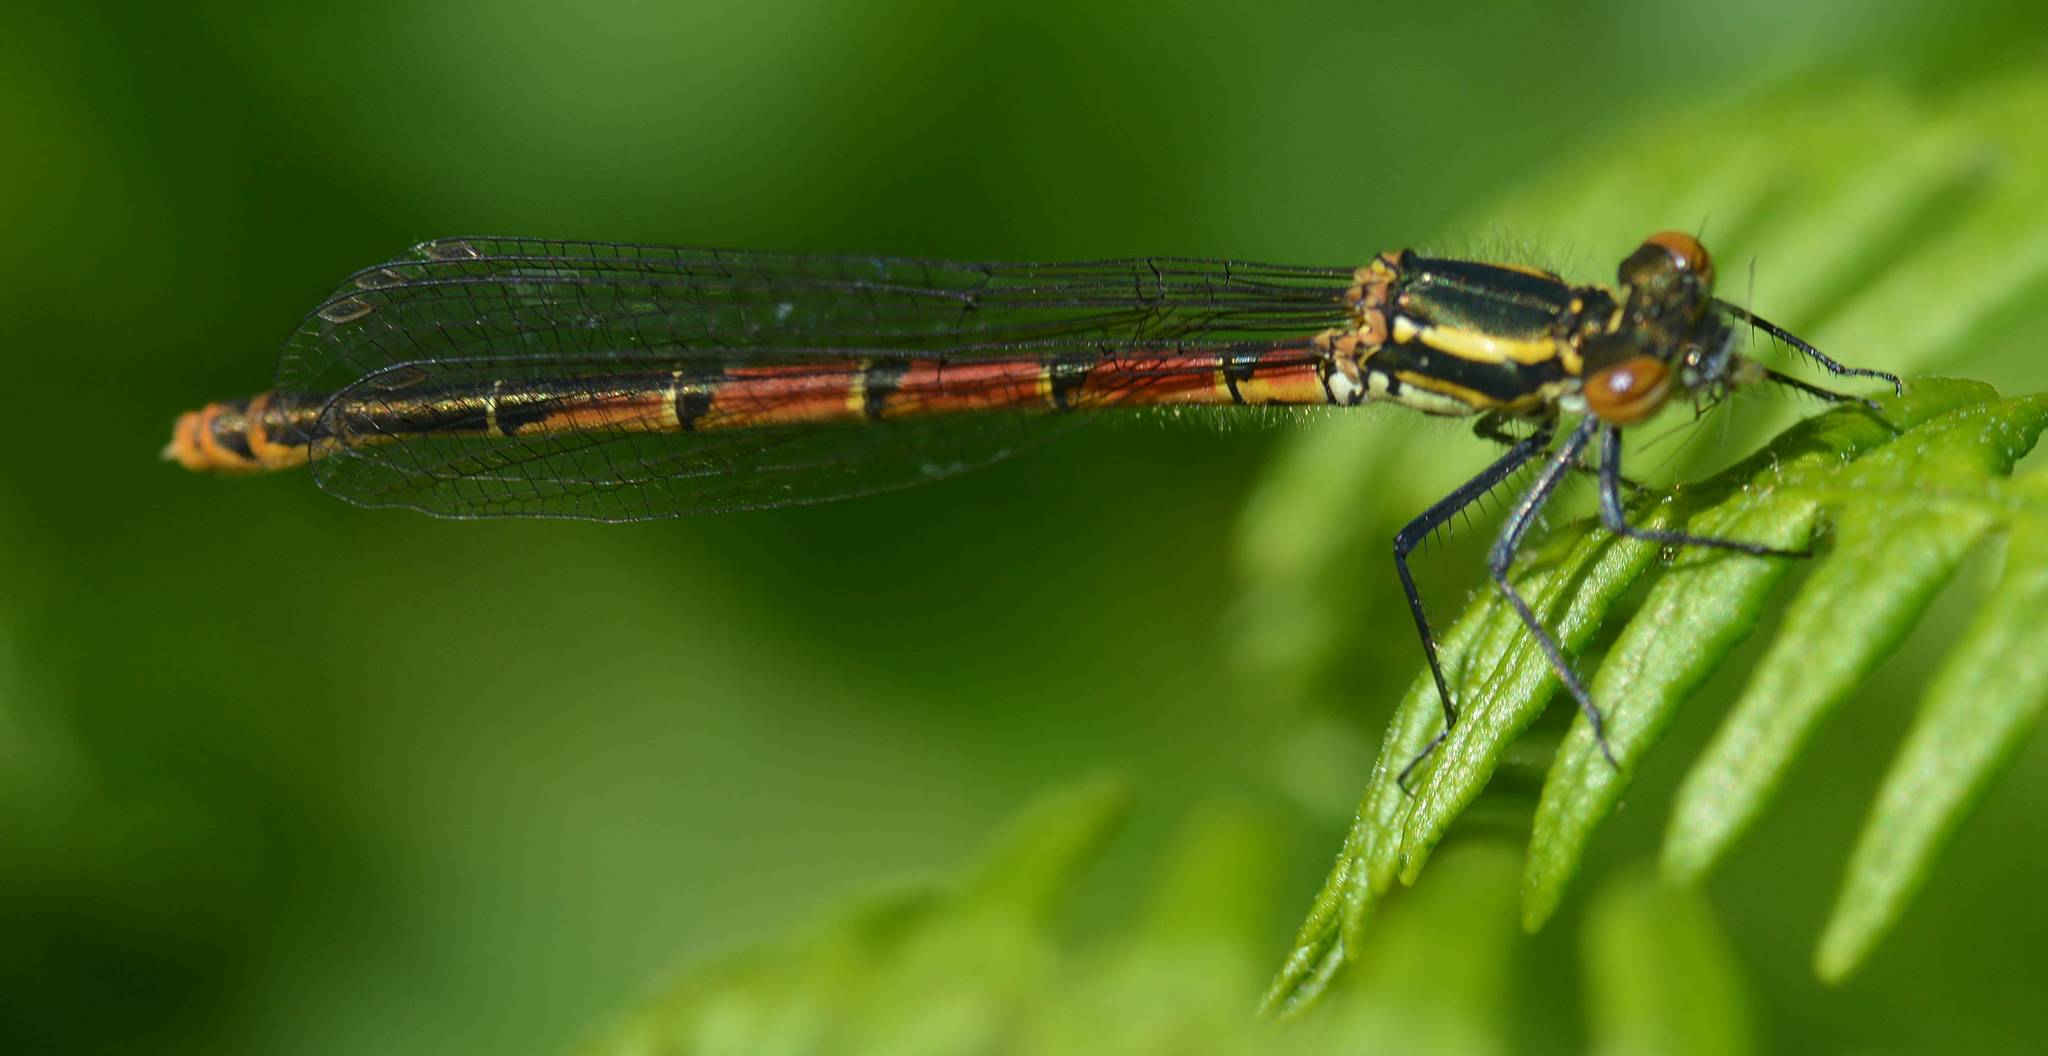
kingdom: Animalia
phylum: Arthropoda
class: Insecta
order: Odonata
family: Coenagrionidae
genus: Pyrrhosoma
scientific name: Pyrrhosoma nymphula
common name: Large red damsel
